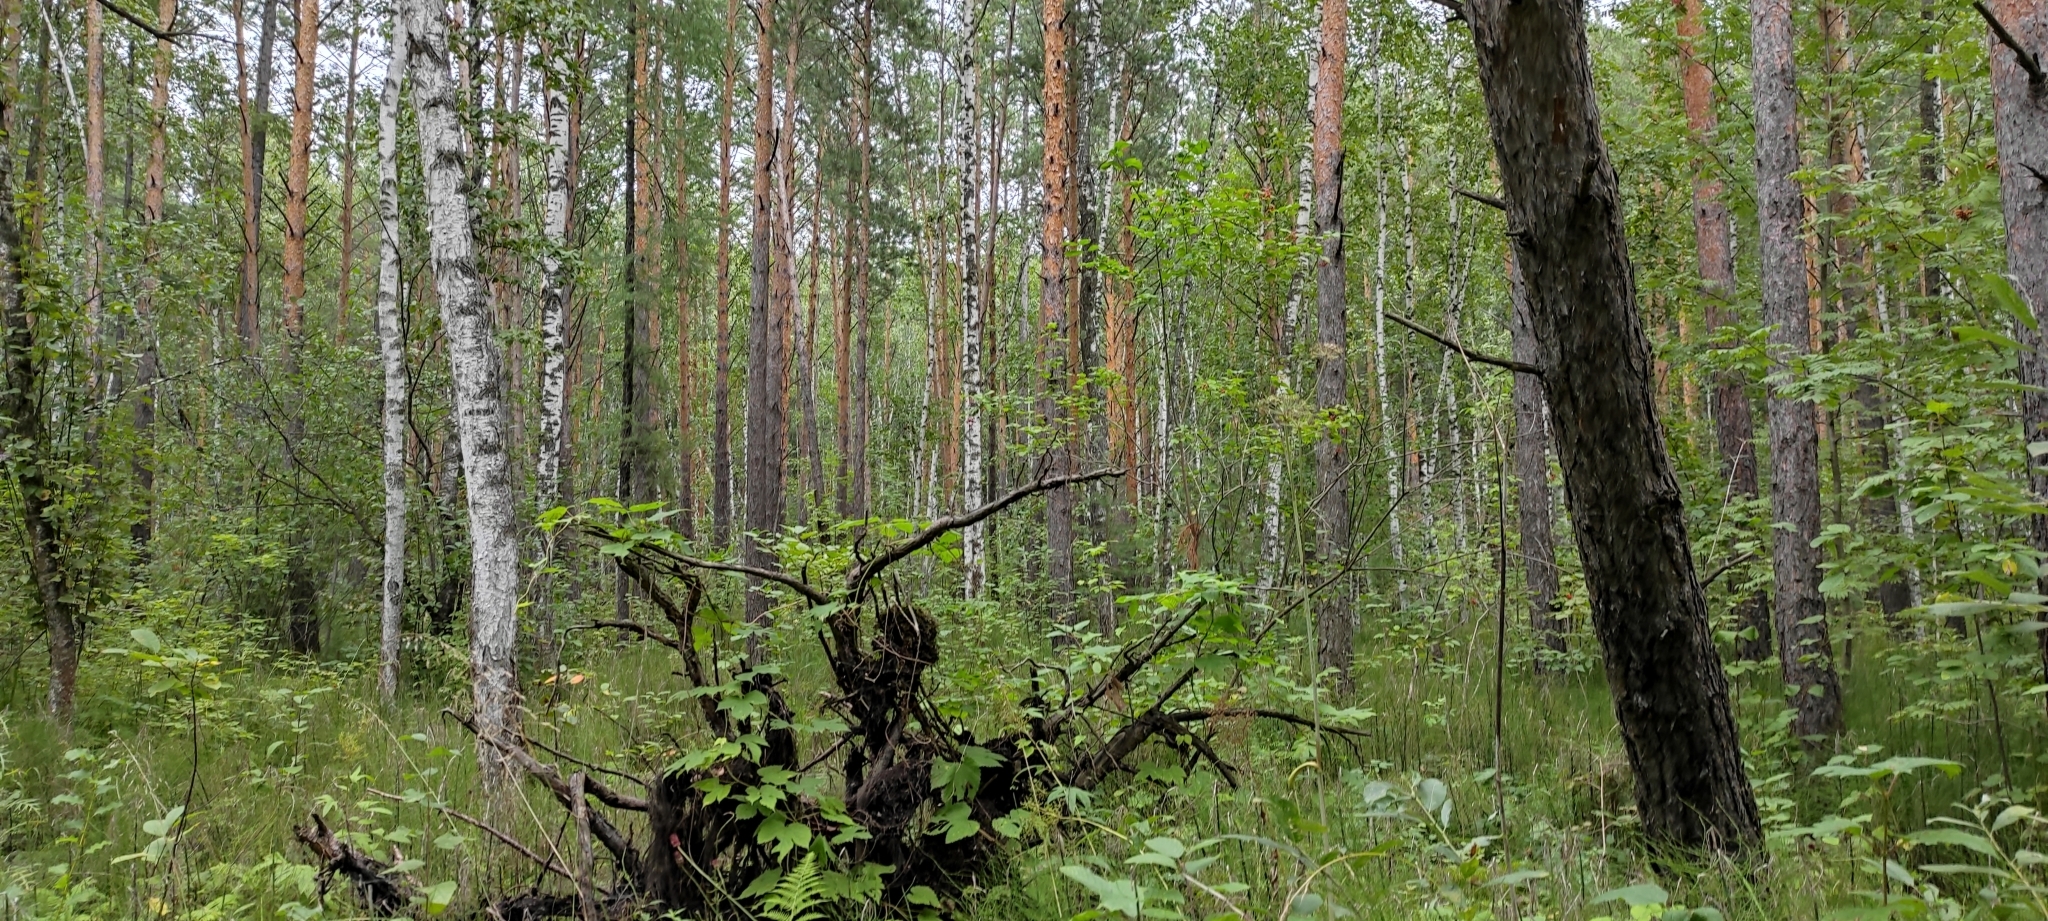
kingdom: Plantae
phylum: Tracheophyta
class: Pinopsida
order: Pinales
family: Pinaceae
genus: Pinus
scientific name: Pinus sylvestris
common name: Scots pine
